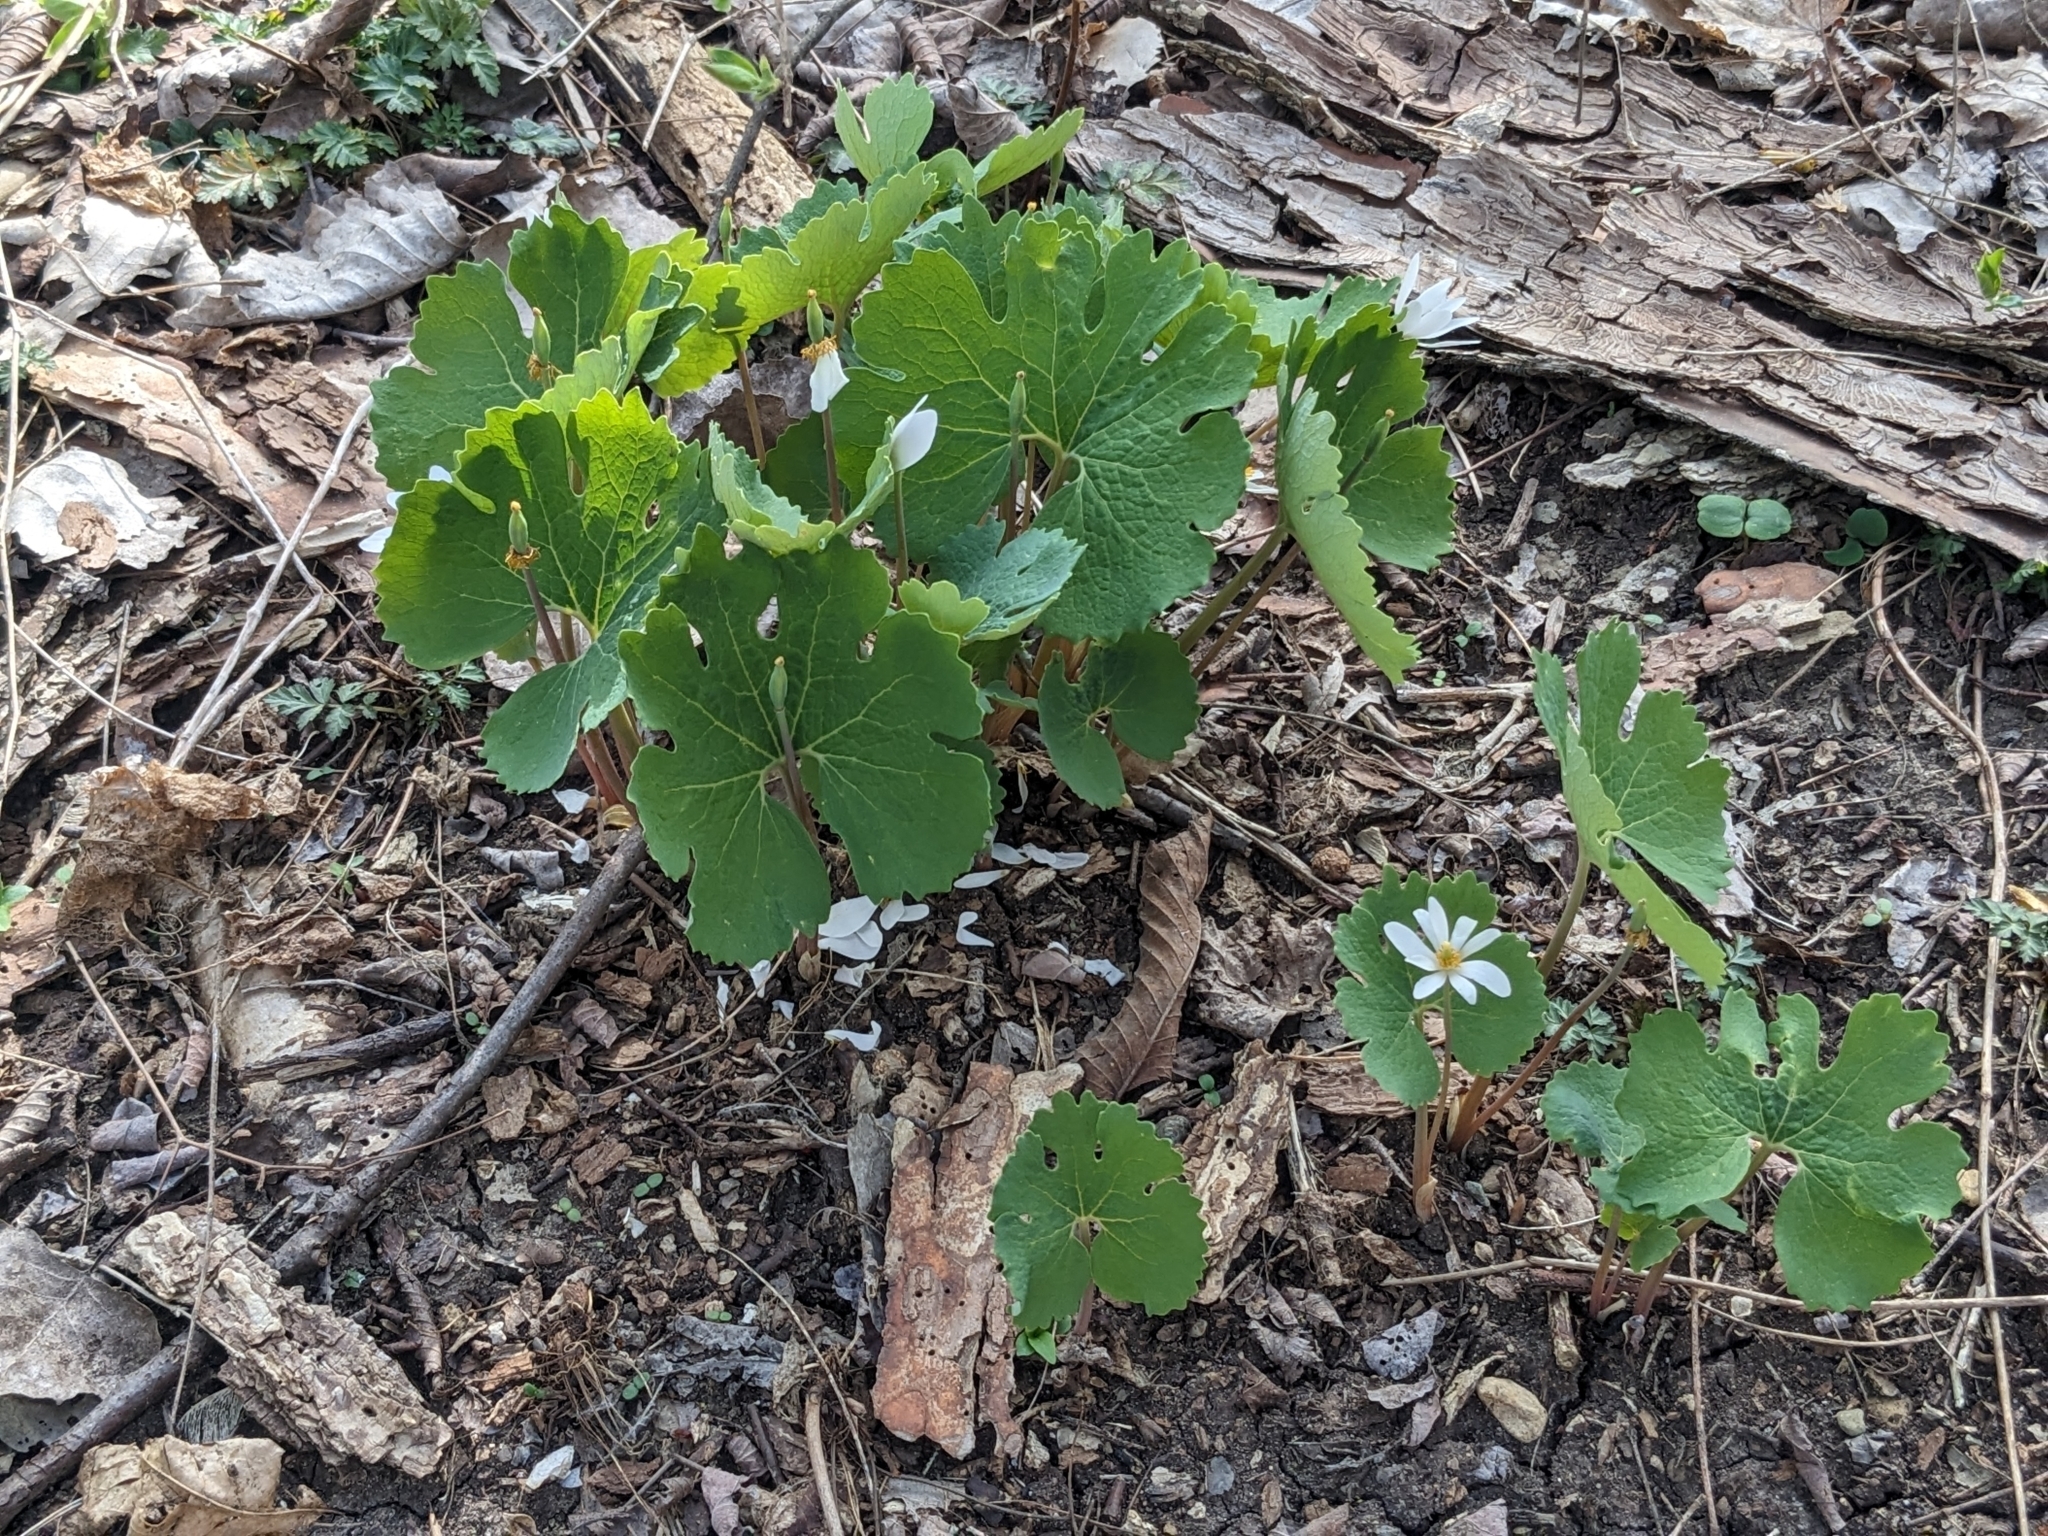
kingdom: Plantae
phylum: Tracheophyta
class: Magnoliopsida
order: Ranunculales
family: Papaveraceae
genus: Sanguinaria
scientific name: Sanguinaria canadensis
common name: Bloodroot
